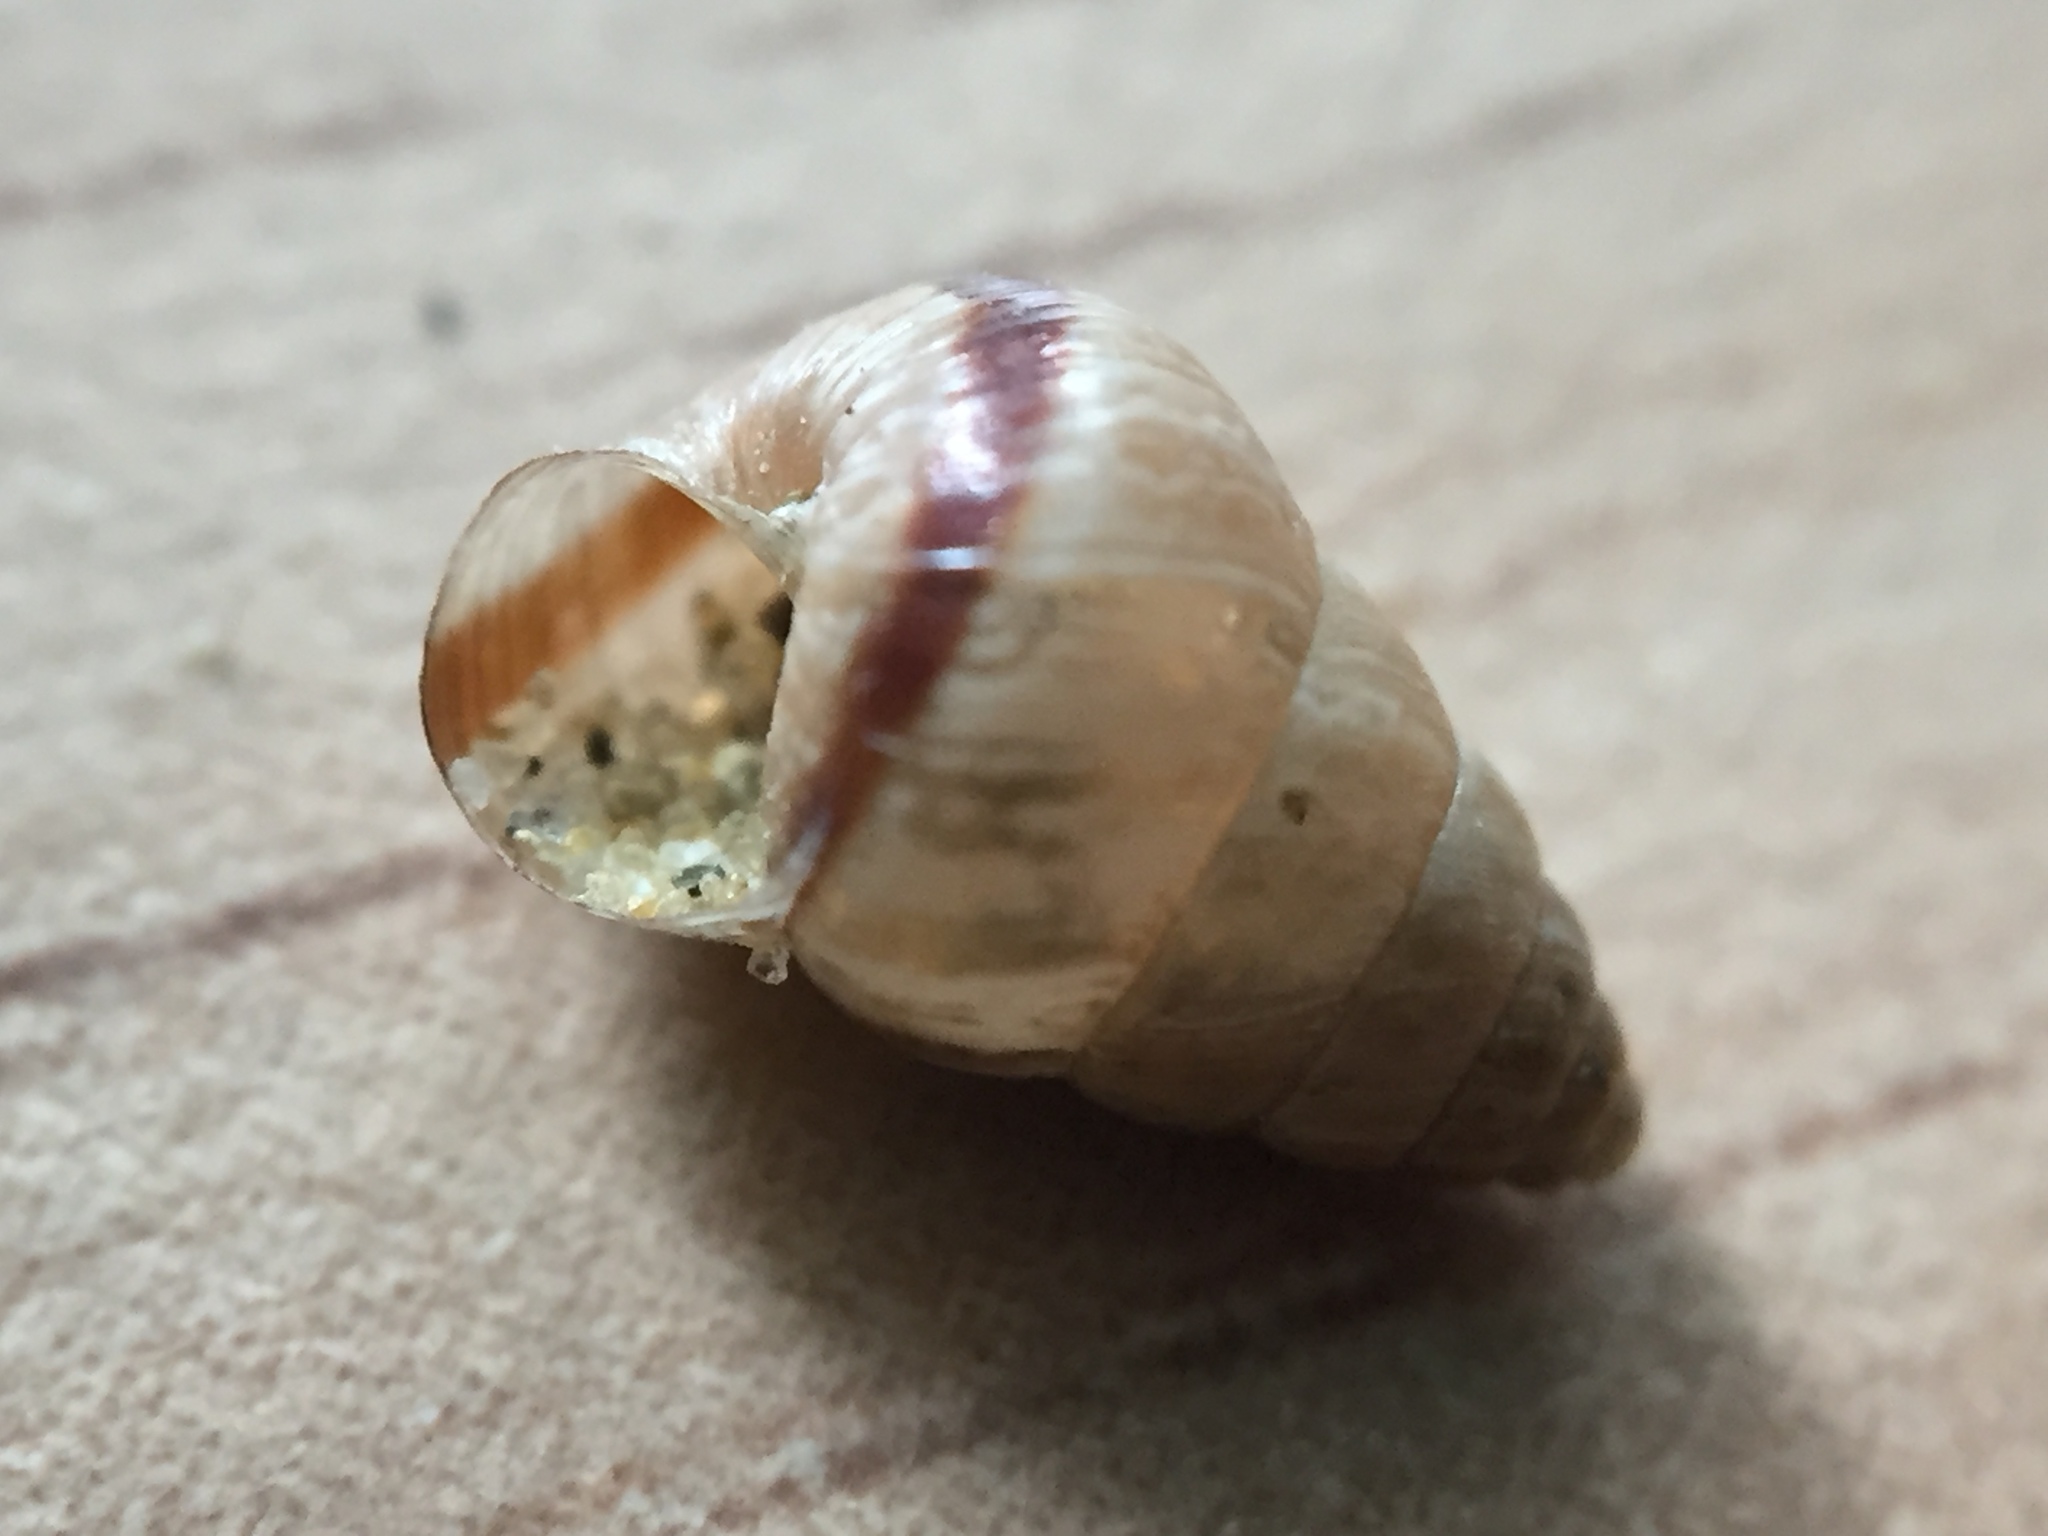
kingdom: Animalia
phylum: Mollusca
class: Gastropoda
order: Stylommatophora
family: Geomitridae
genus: Cochlicella
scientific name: Cochlicella barbara
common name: Potbellied helicellid
